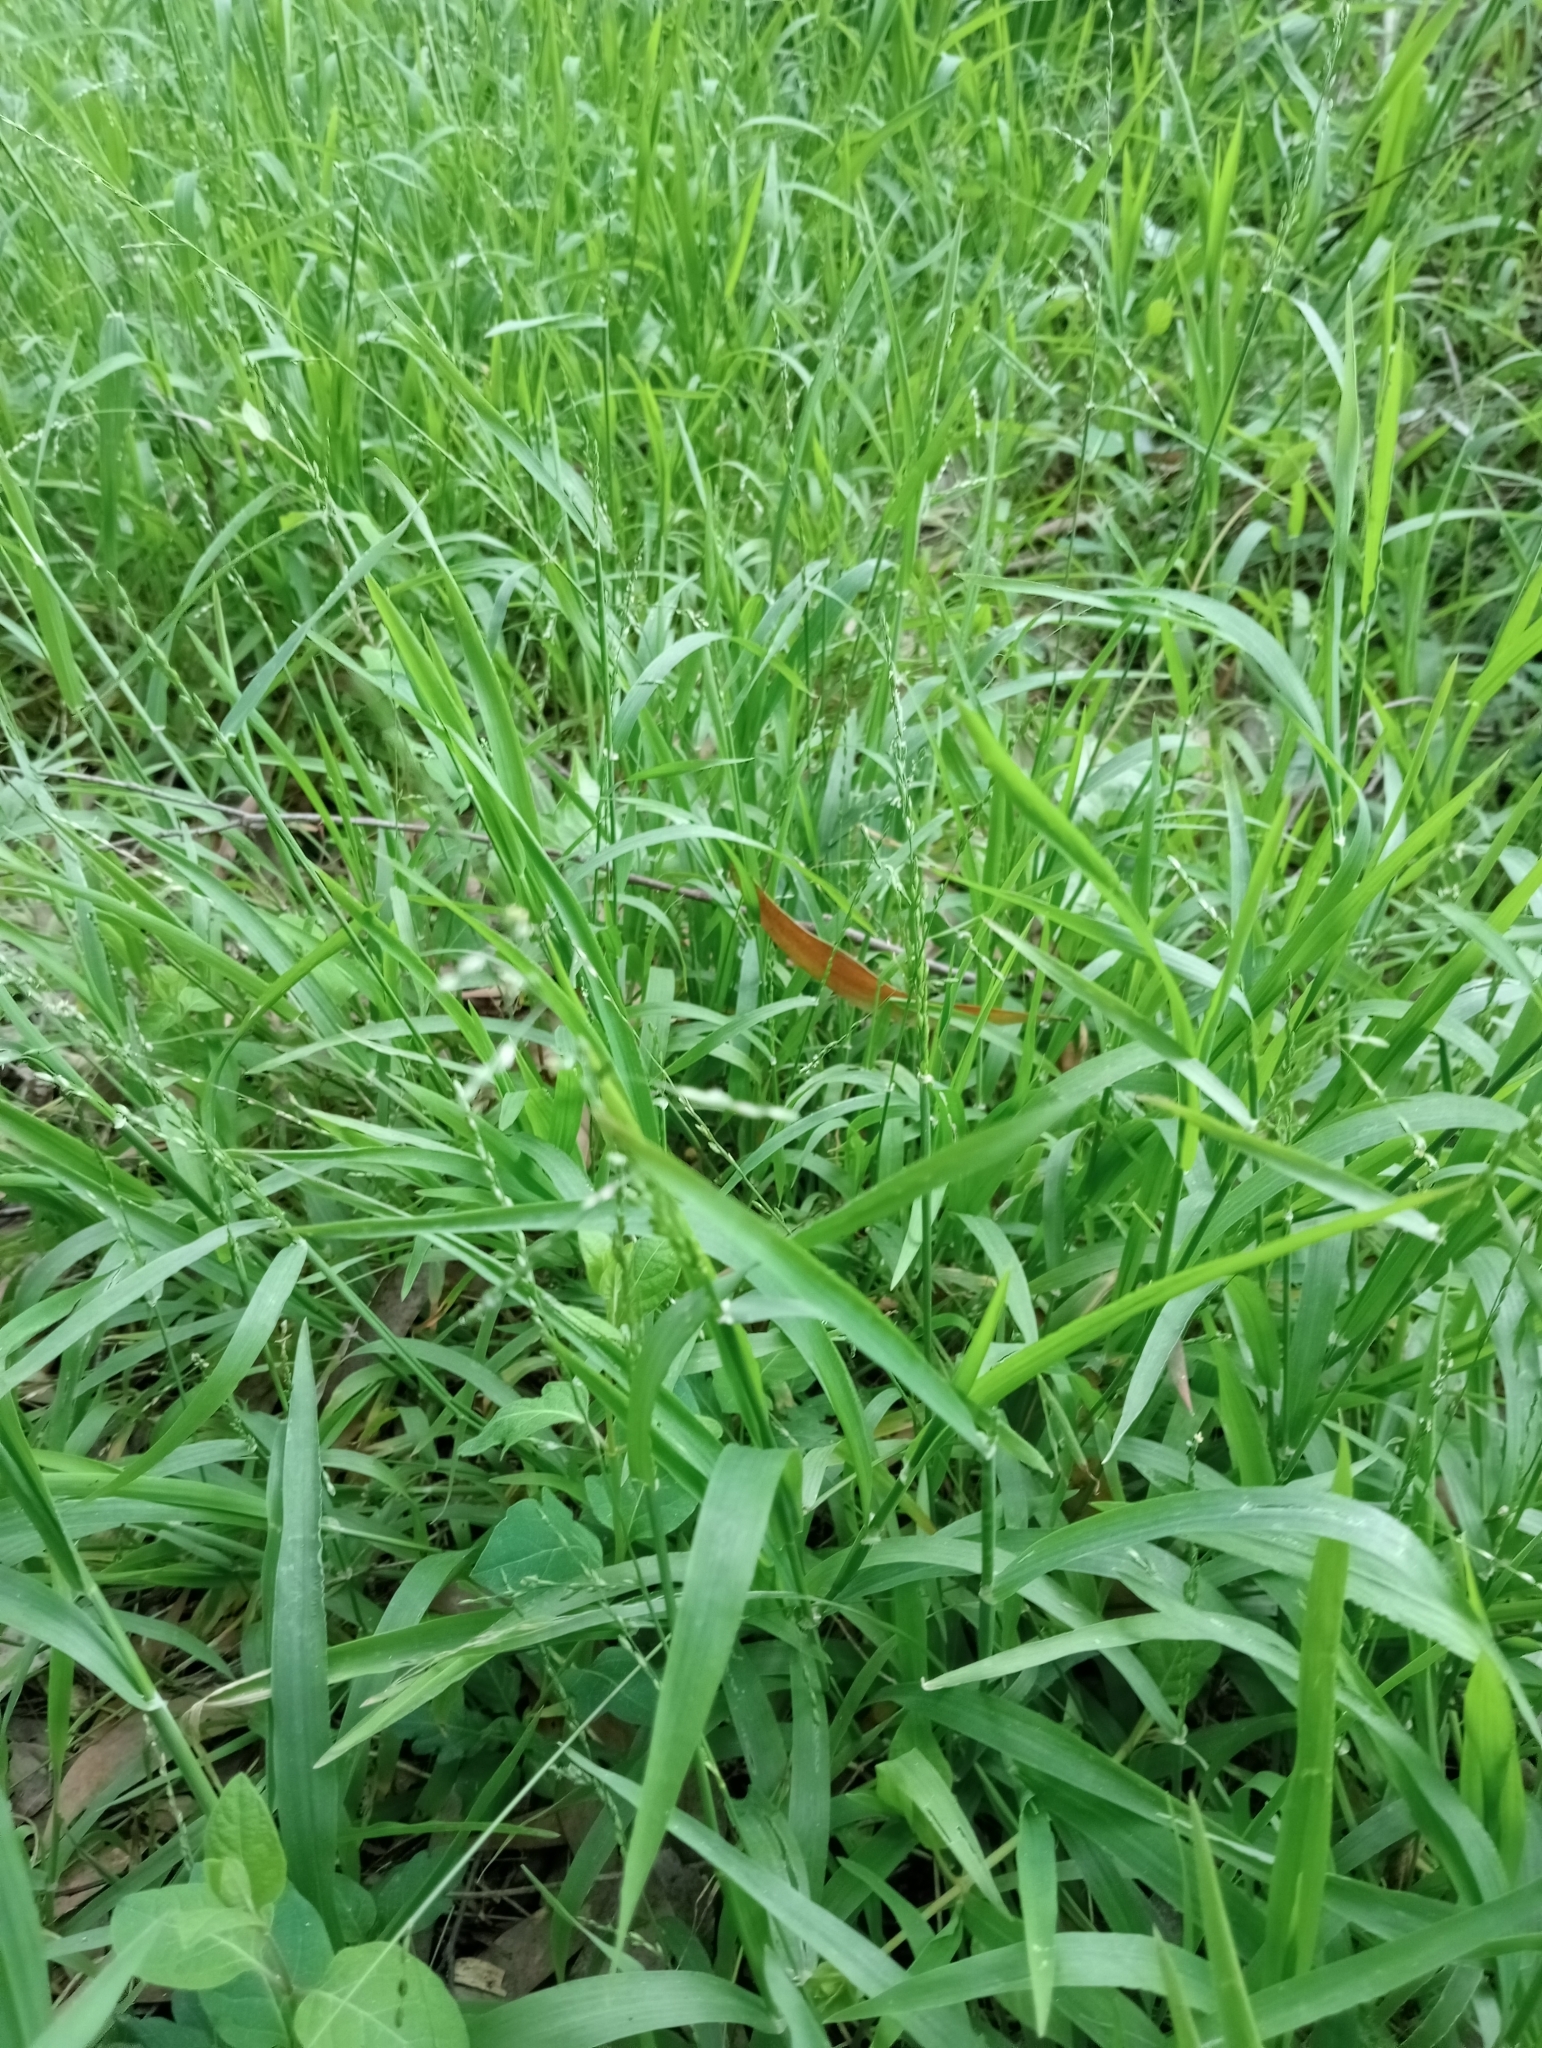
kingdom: Plantae
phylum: Tracheophyta
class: Liliopsida
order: Poales
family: Poaceae
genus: Ehrharta
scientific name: Ehrharta erecta
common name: Panic veldtgrass
